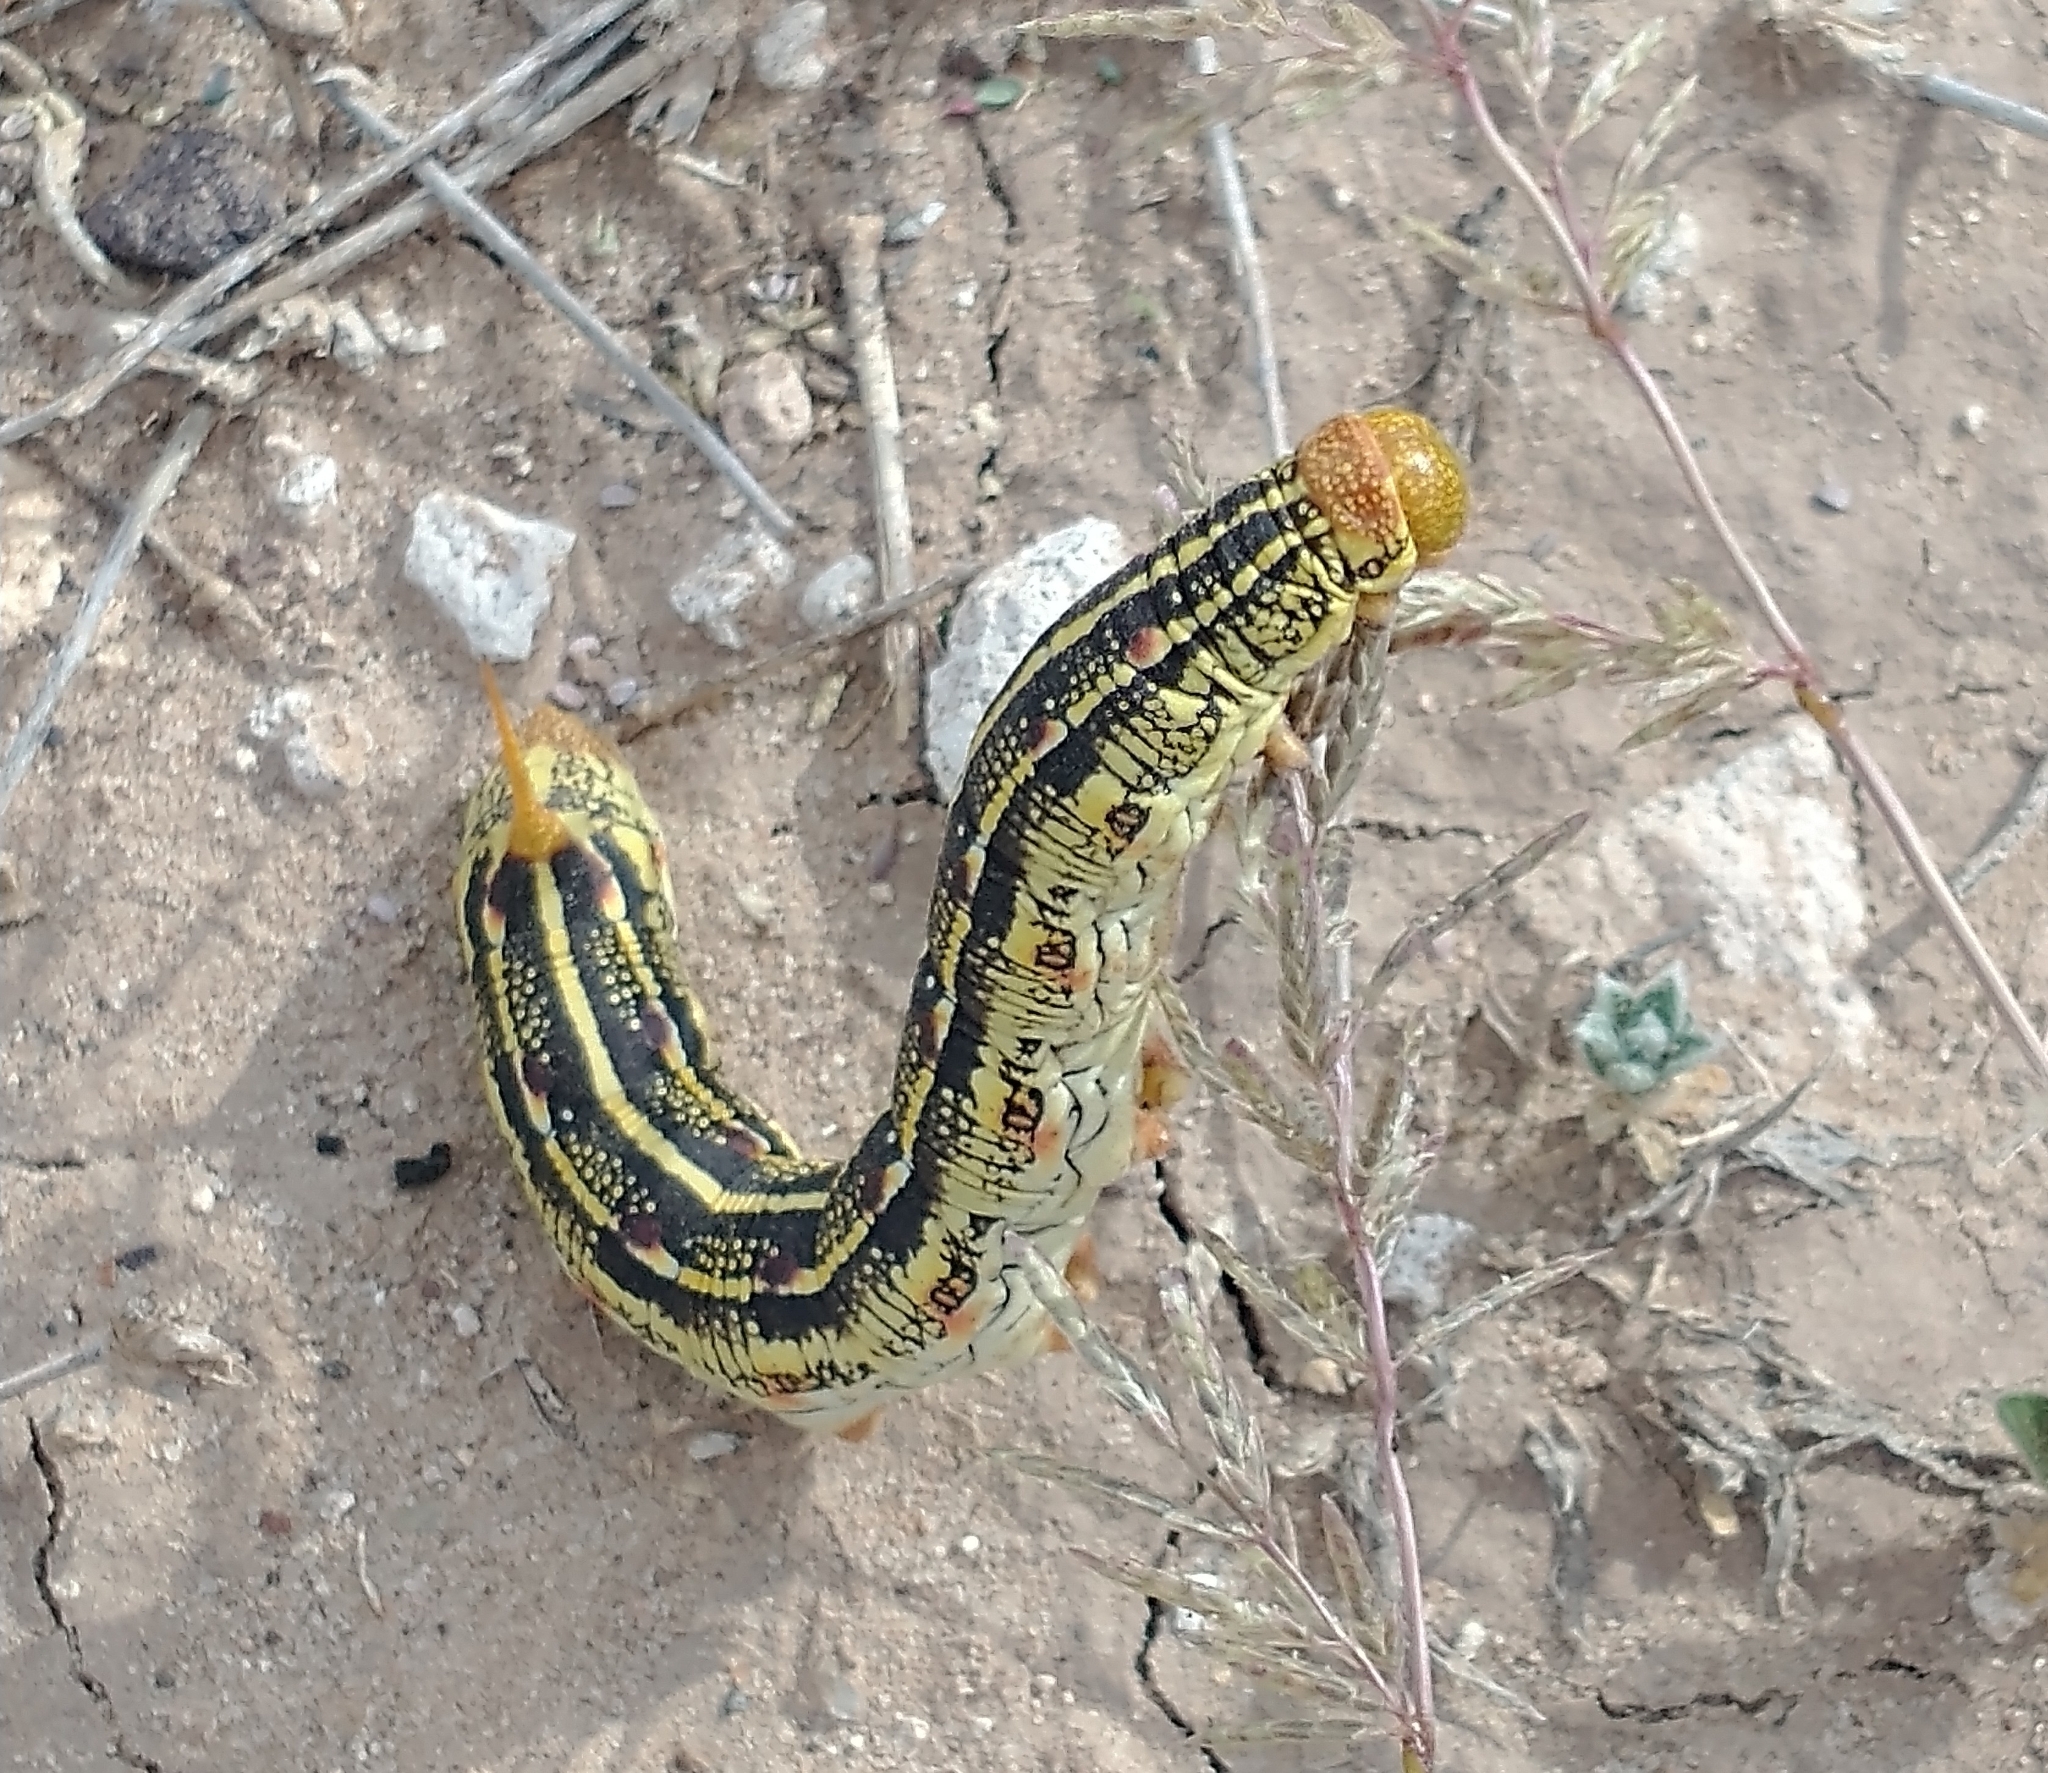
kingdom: Animalia
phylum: Arthropoda
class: Insecta
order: Lepidoptera
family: Sphingidae
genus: Hyles
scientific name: Hyles lineata
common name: White-lined sphinx
